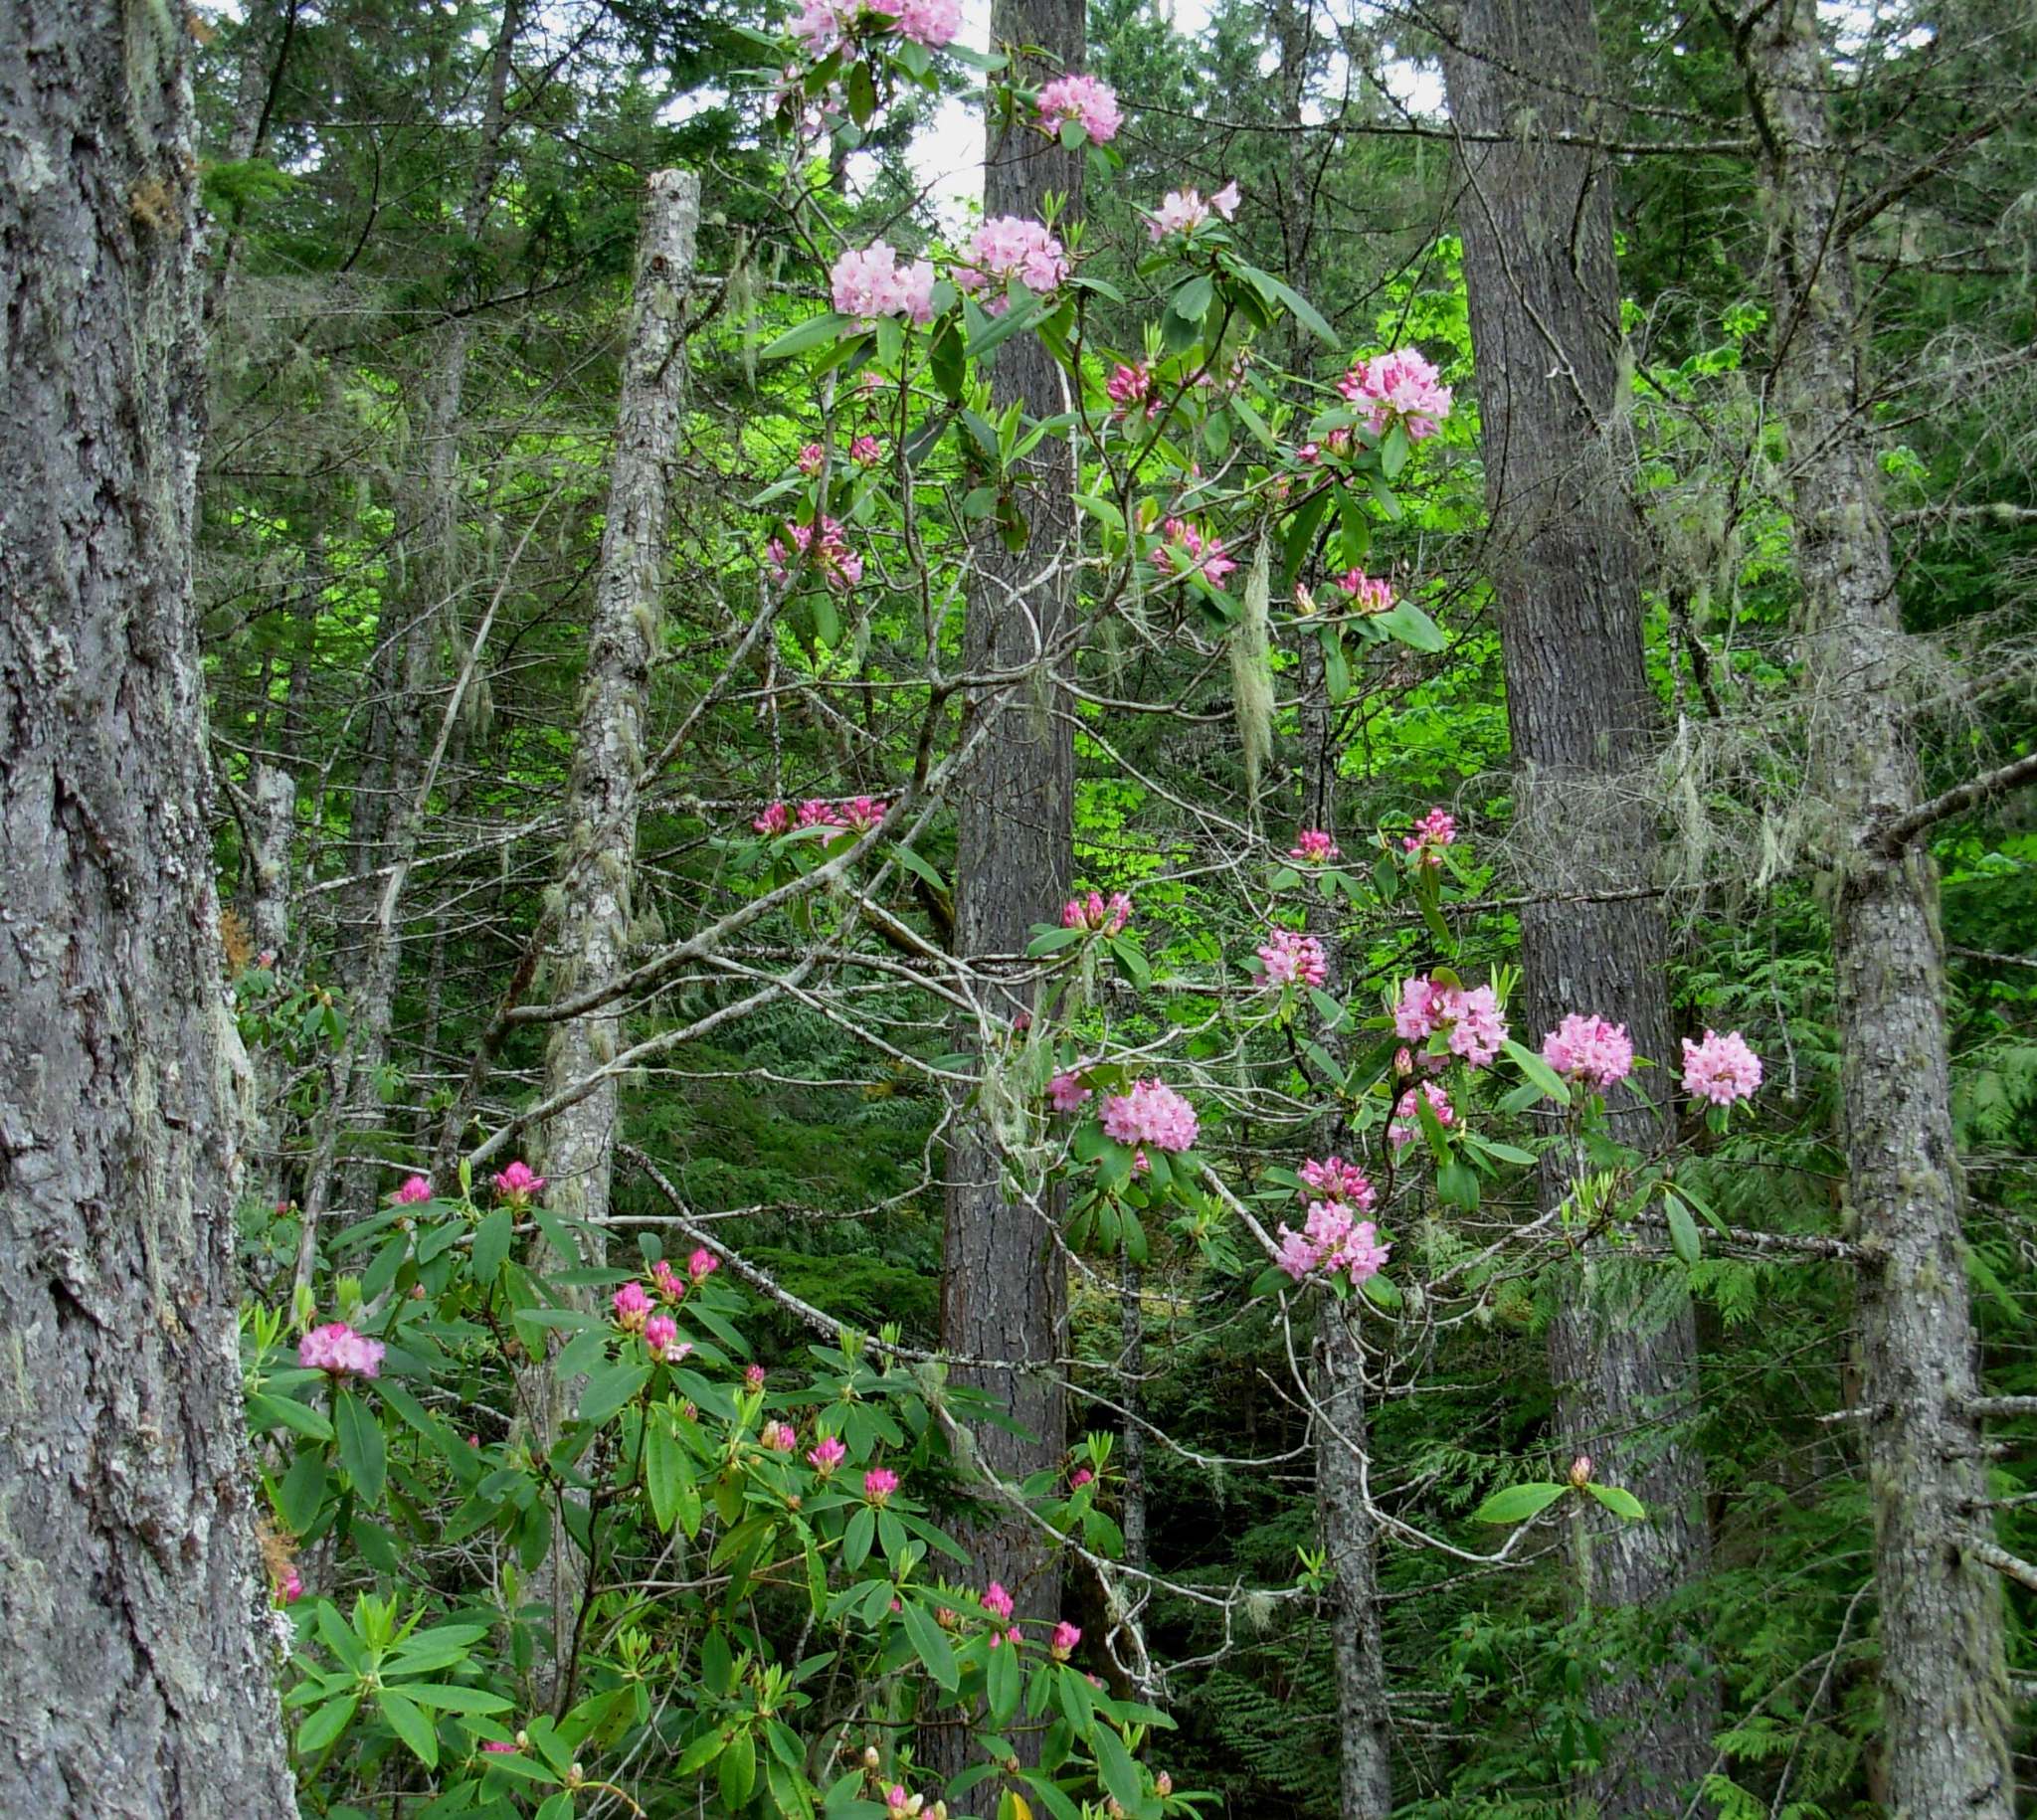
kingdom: Plantae
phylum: Tracheophyta
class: Magnoliopsida
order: Ericales
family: Ericaceae
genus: Rhododendron
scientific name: Rhododendron macrophyllum
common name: California rose bay
